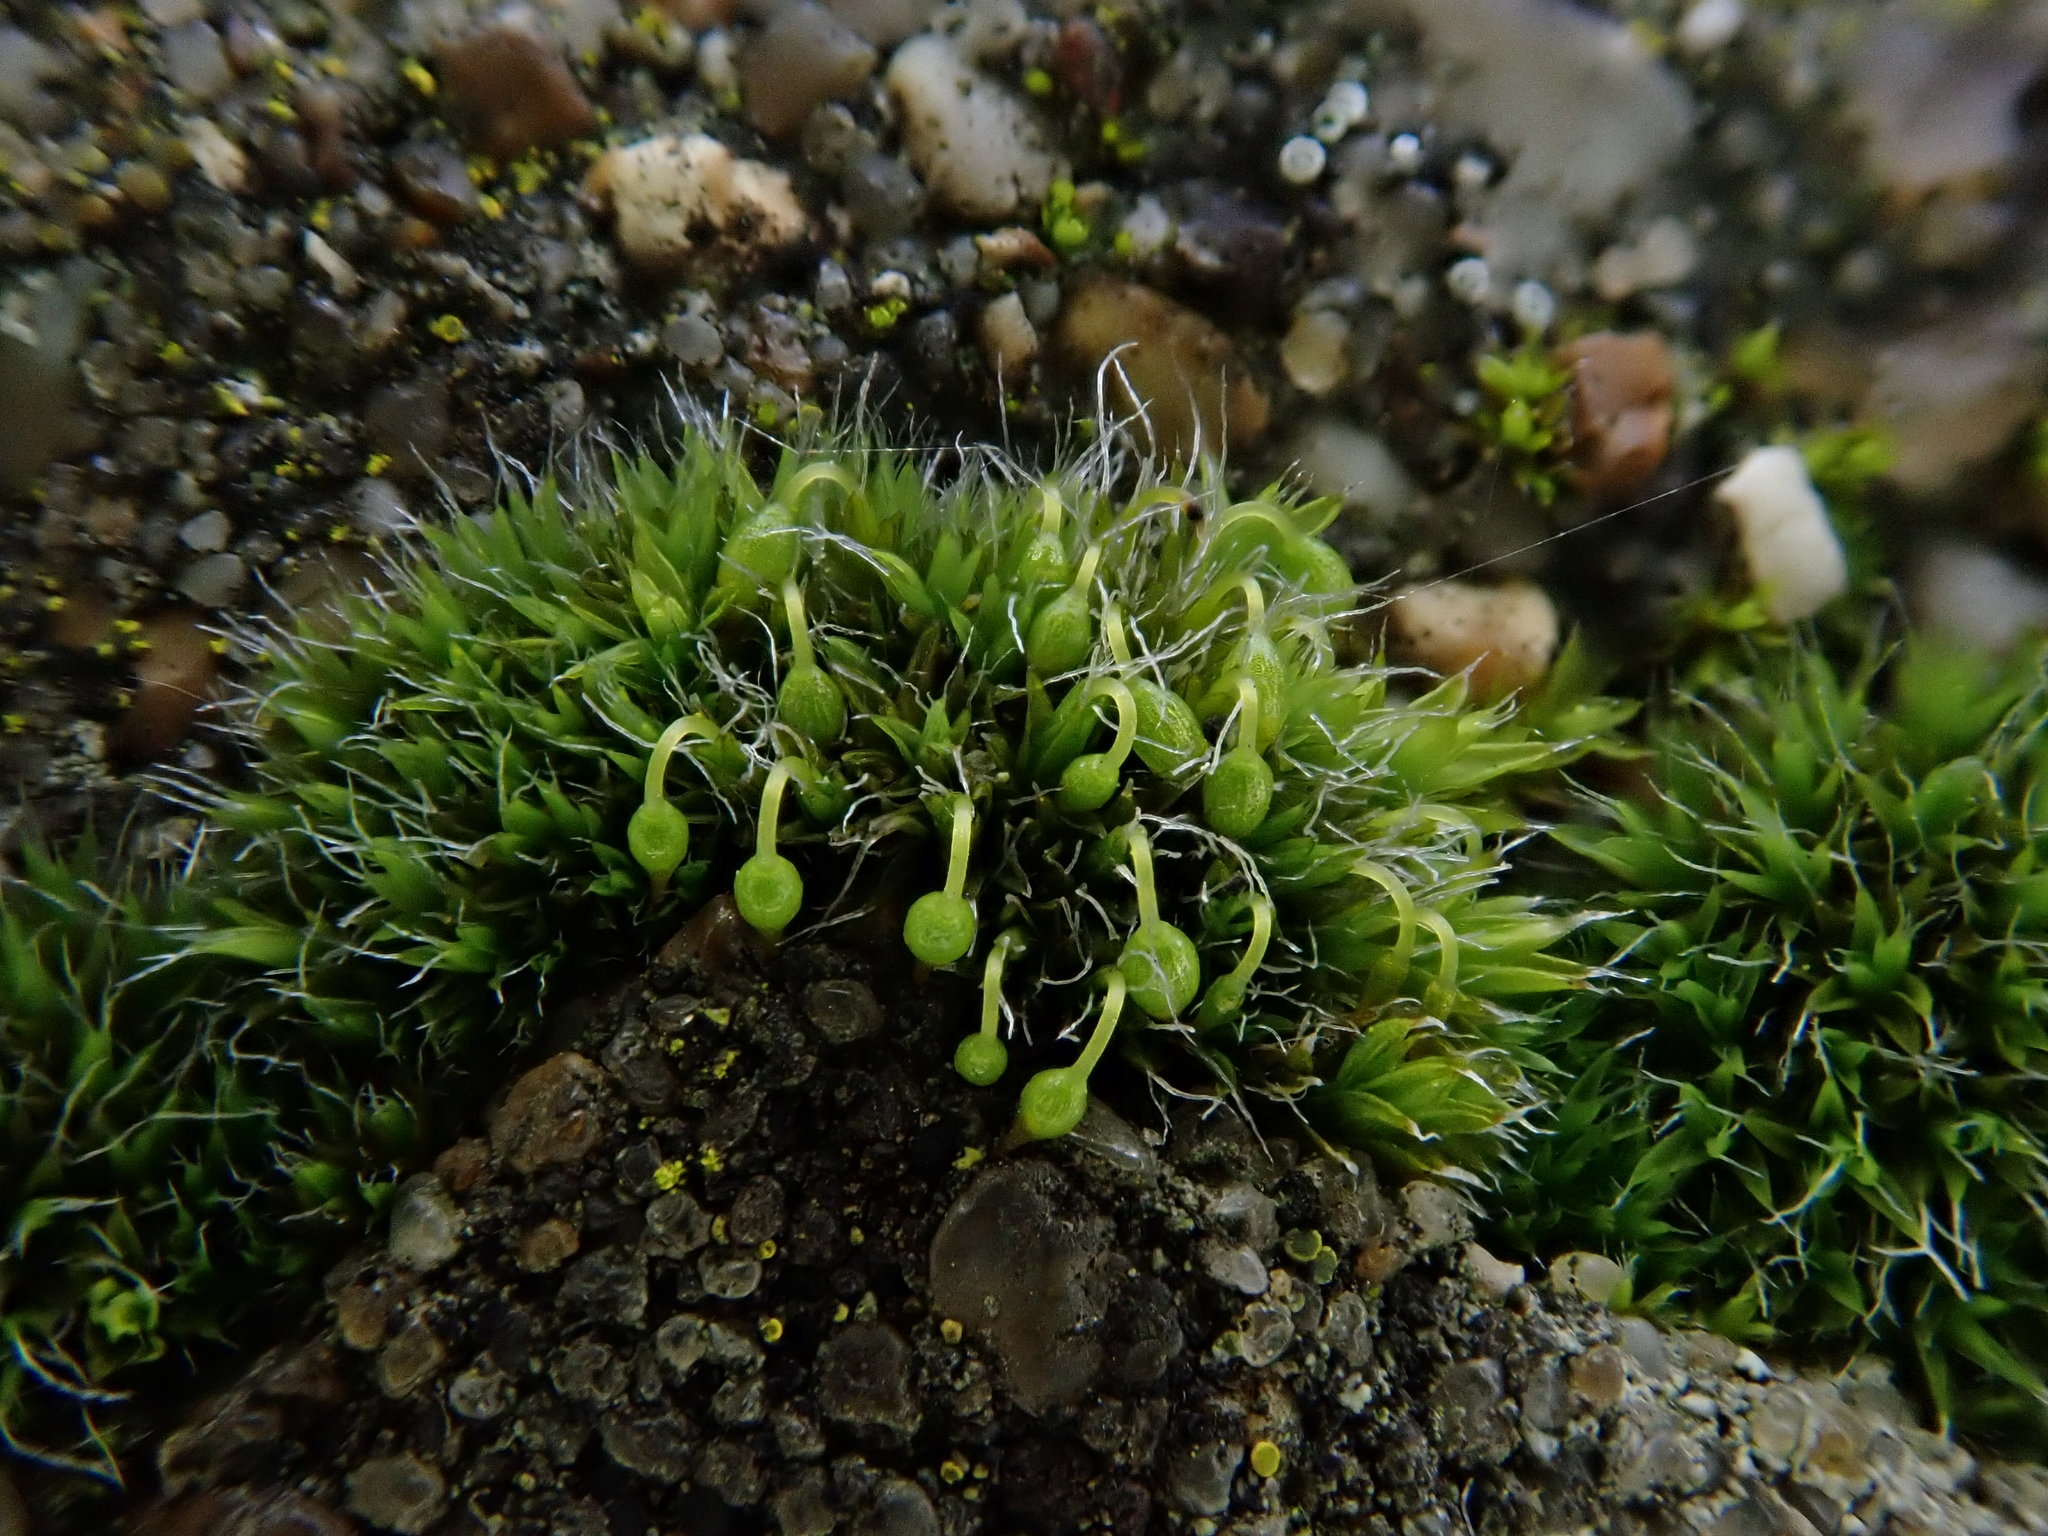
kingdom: Plantae
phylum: Bryophyta
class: Bryopsida
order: Grimmiales
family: Grimmiaceae
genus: Grimmia
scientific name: Grimmia pulvinata
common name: Grey-cushioned grimmia
